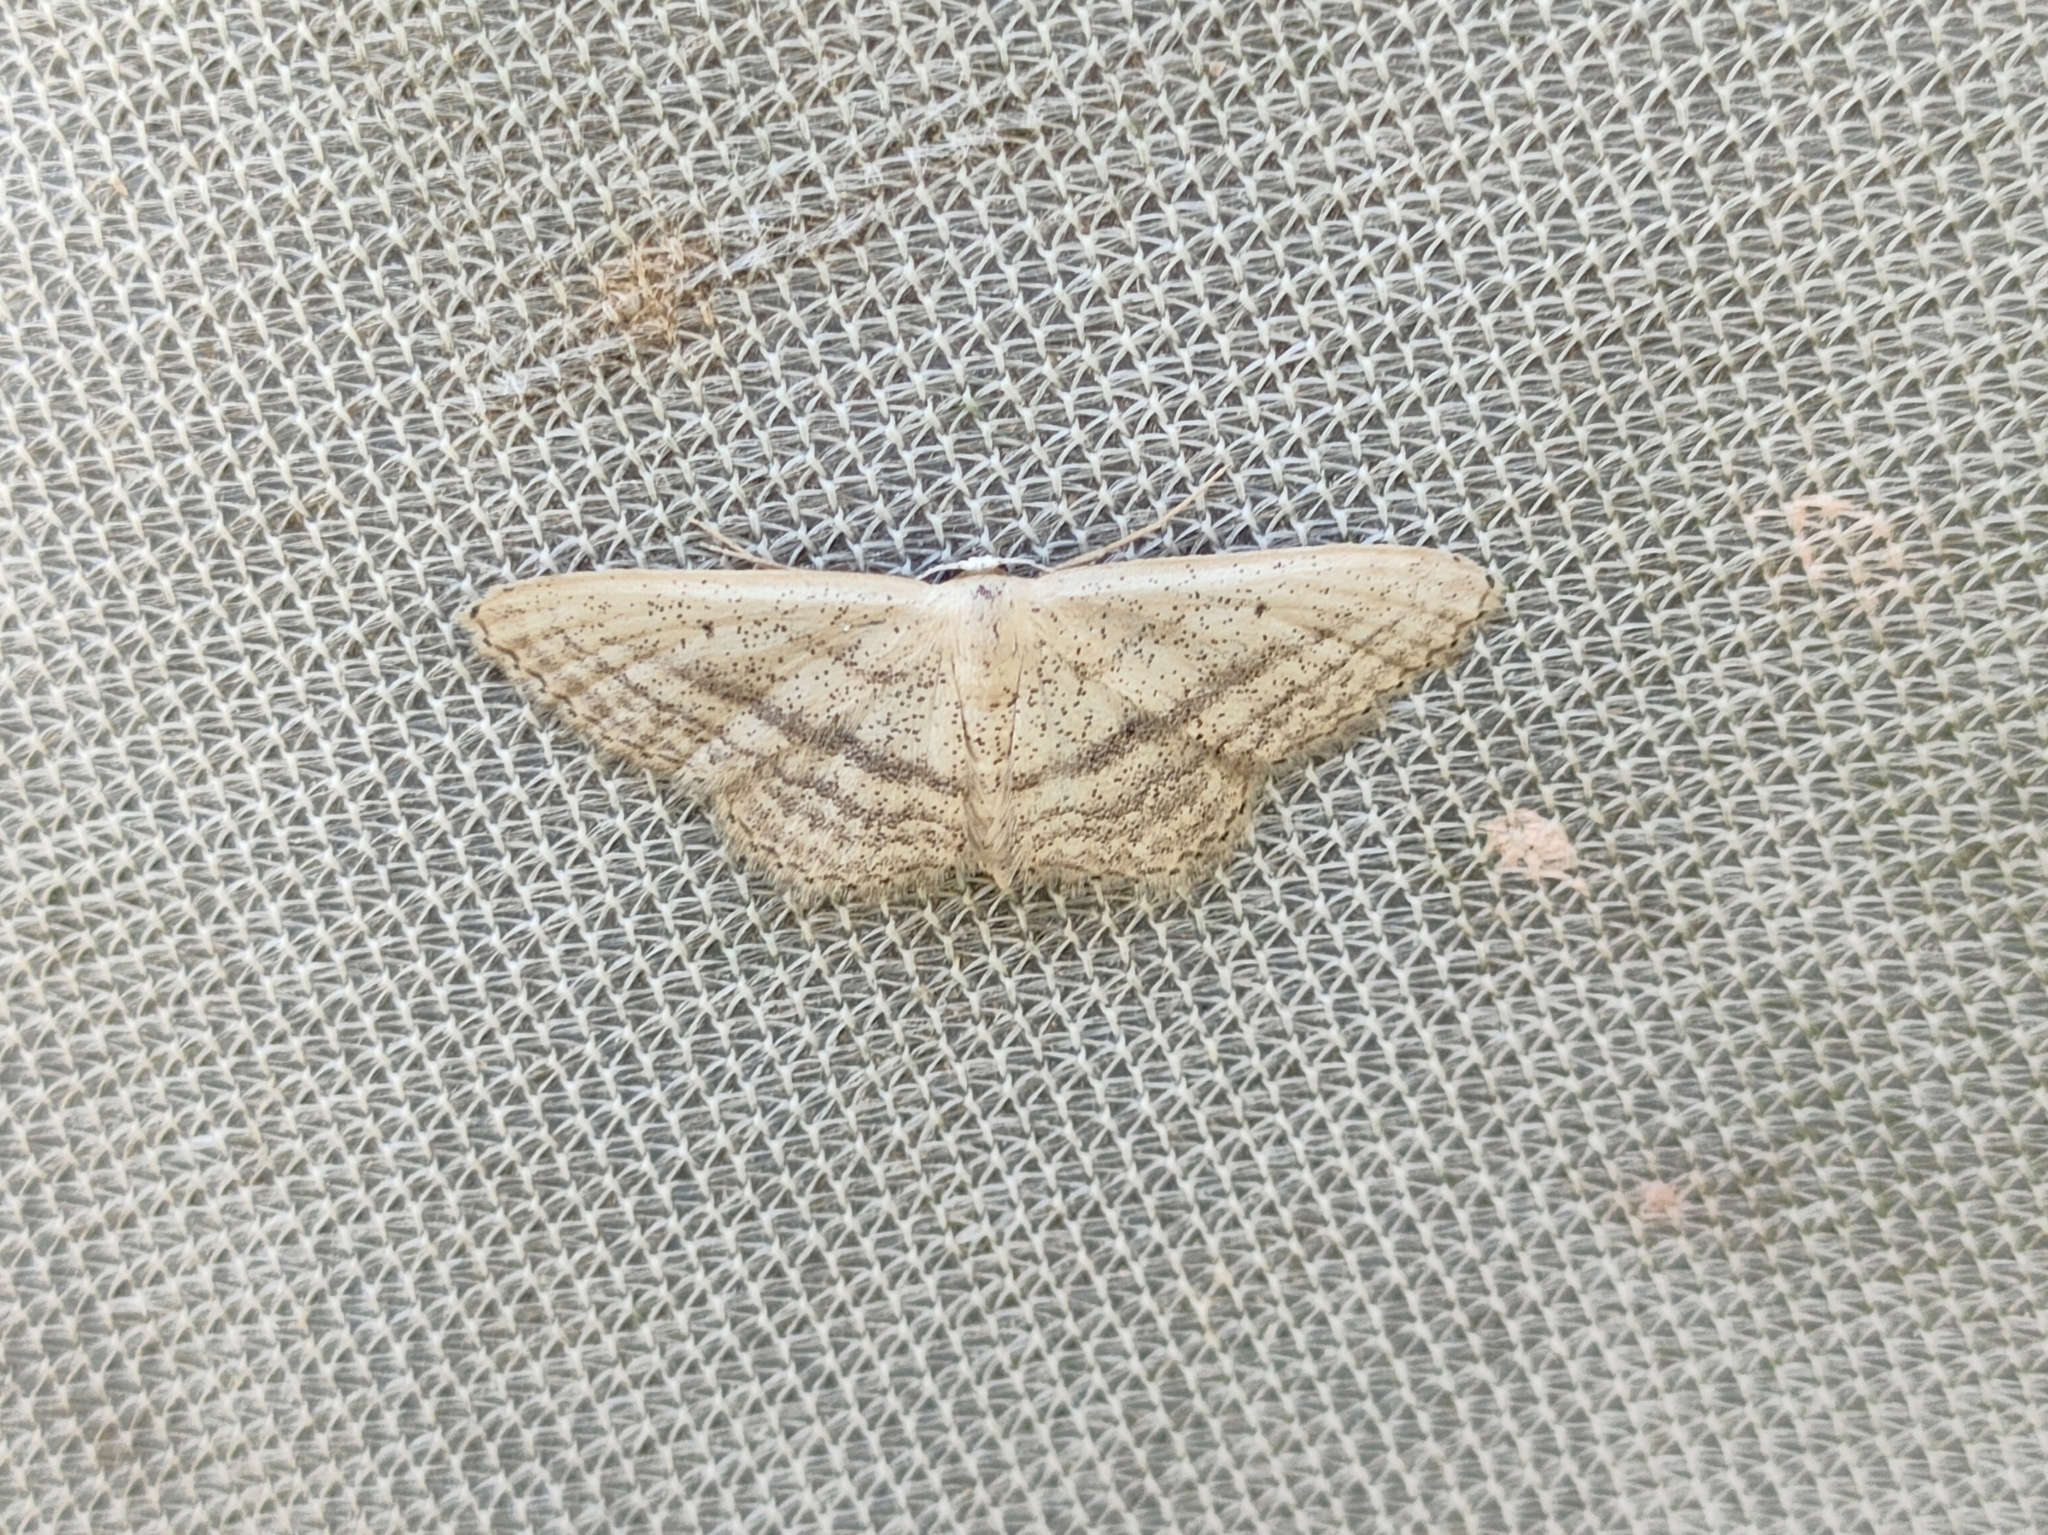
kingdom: Animalia
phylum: Arthropoda
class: Insecta
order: Lepidoptera
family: Geometridae
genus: Idaea
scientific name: Idaea mediaria
